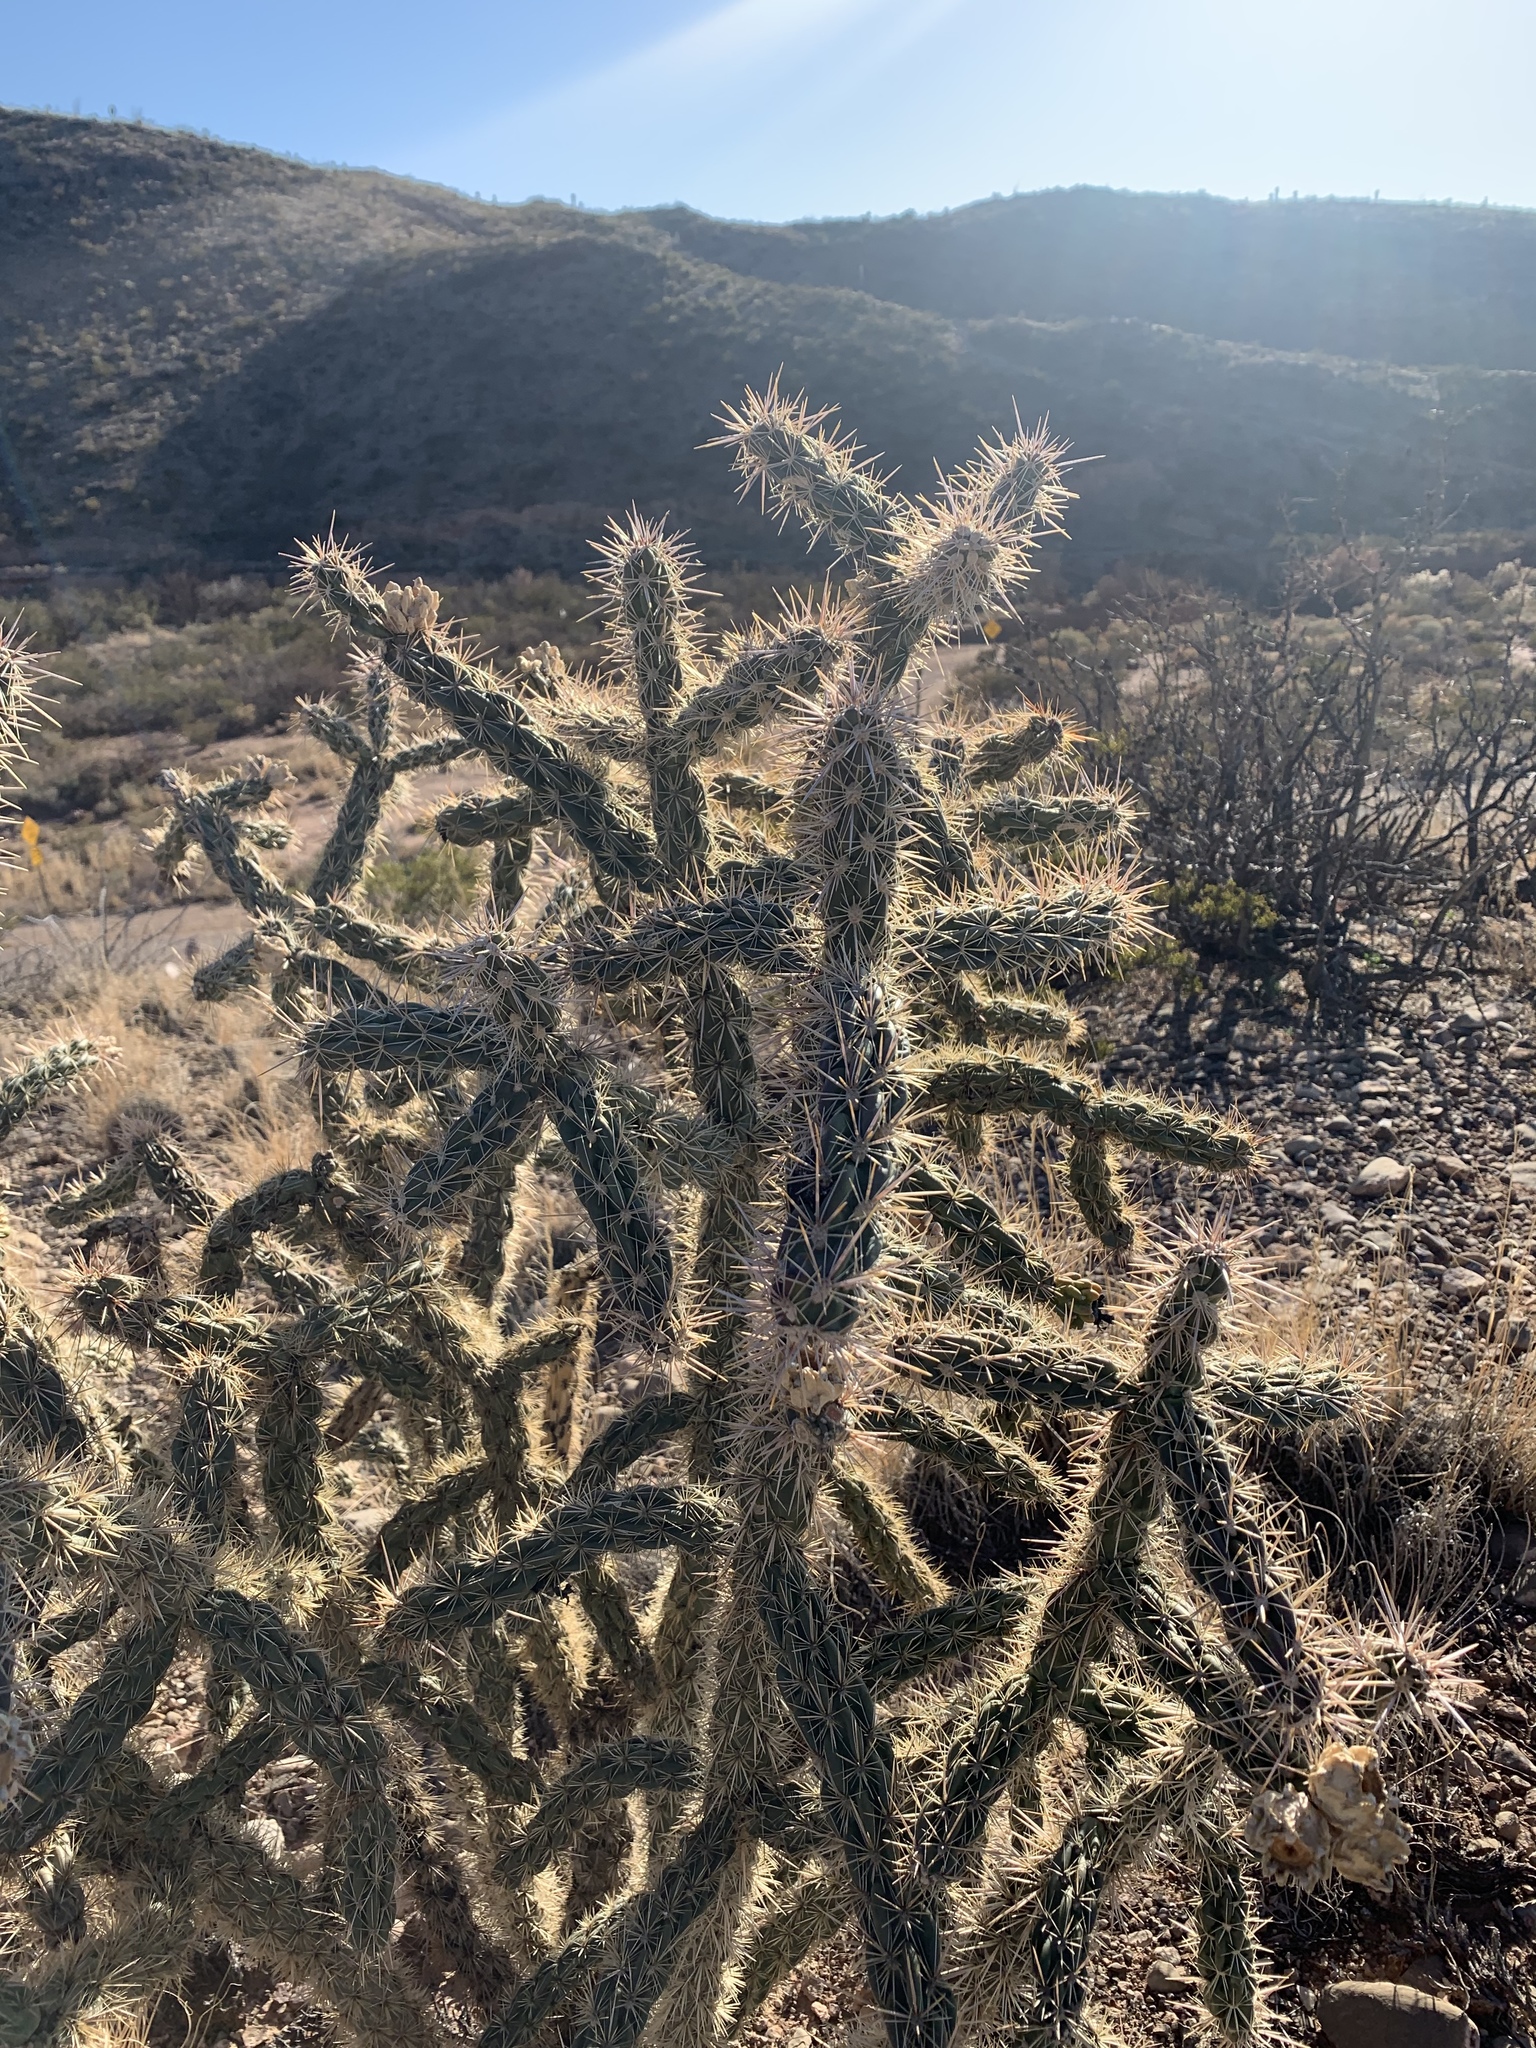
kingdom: Plantae
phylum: Tracheophyta
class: Magnoliopsida
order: Caryophyllales
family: Cactaceae
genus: Cylindropuntia
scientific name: Cylindropuntia imbricata
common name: Candelabrum cactus
